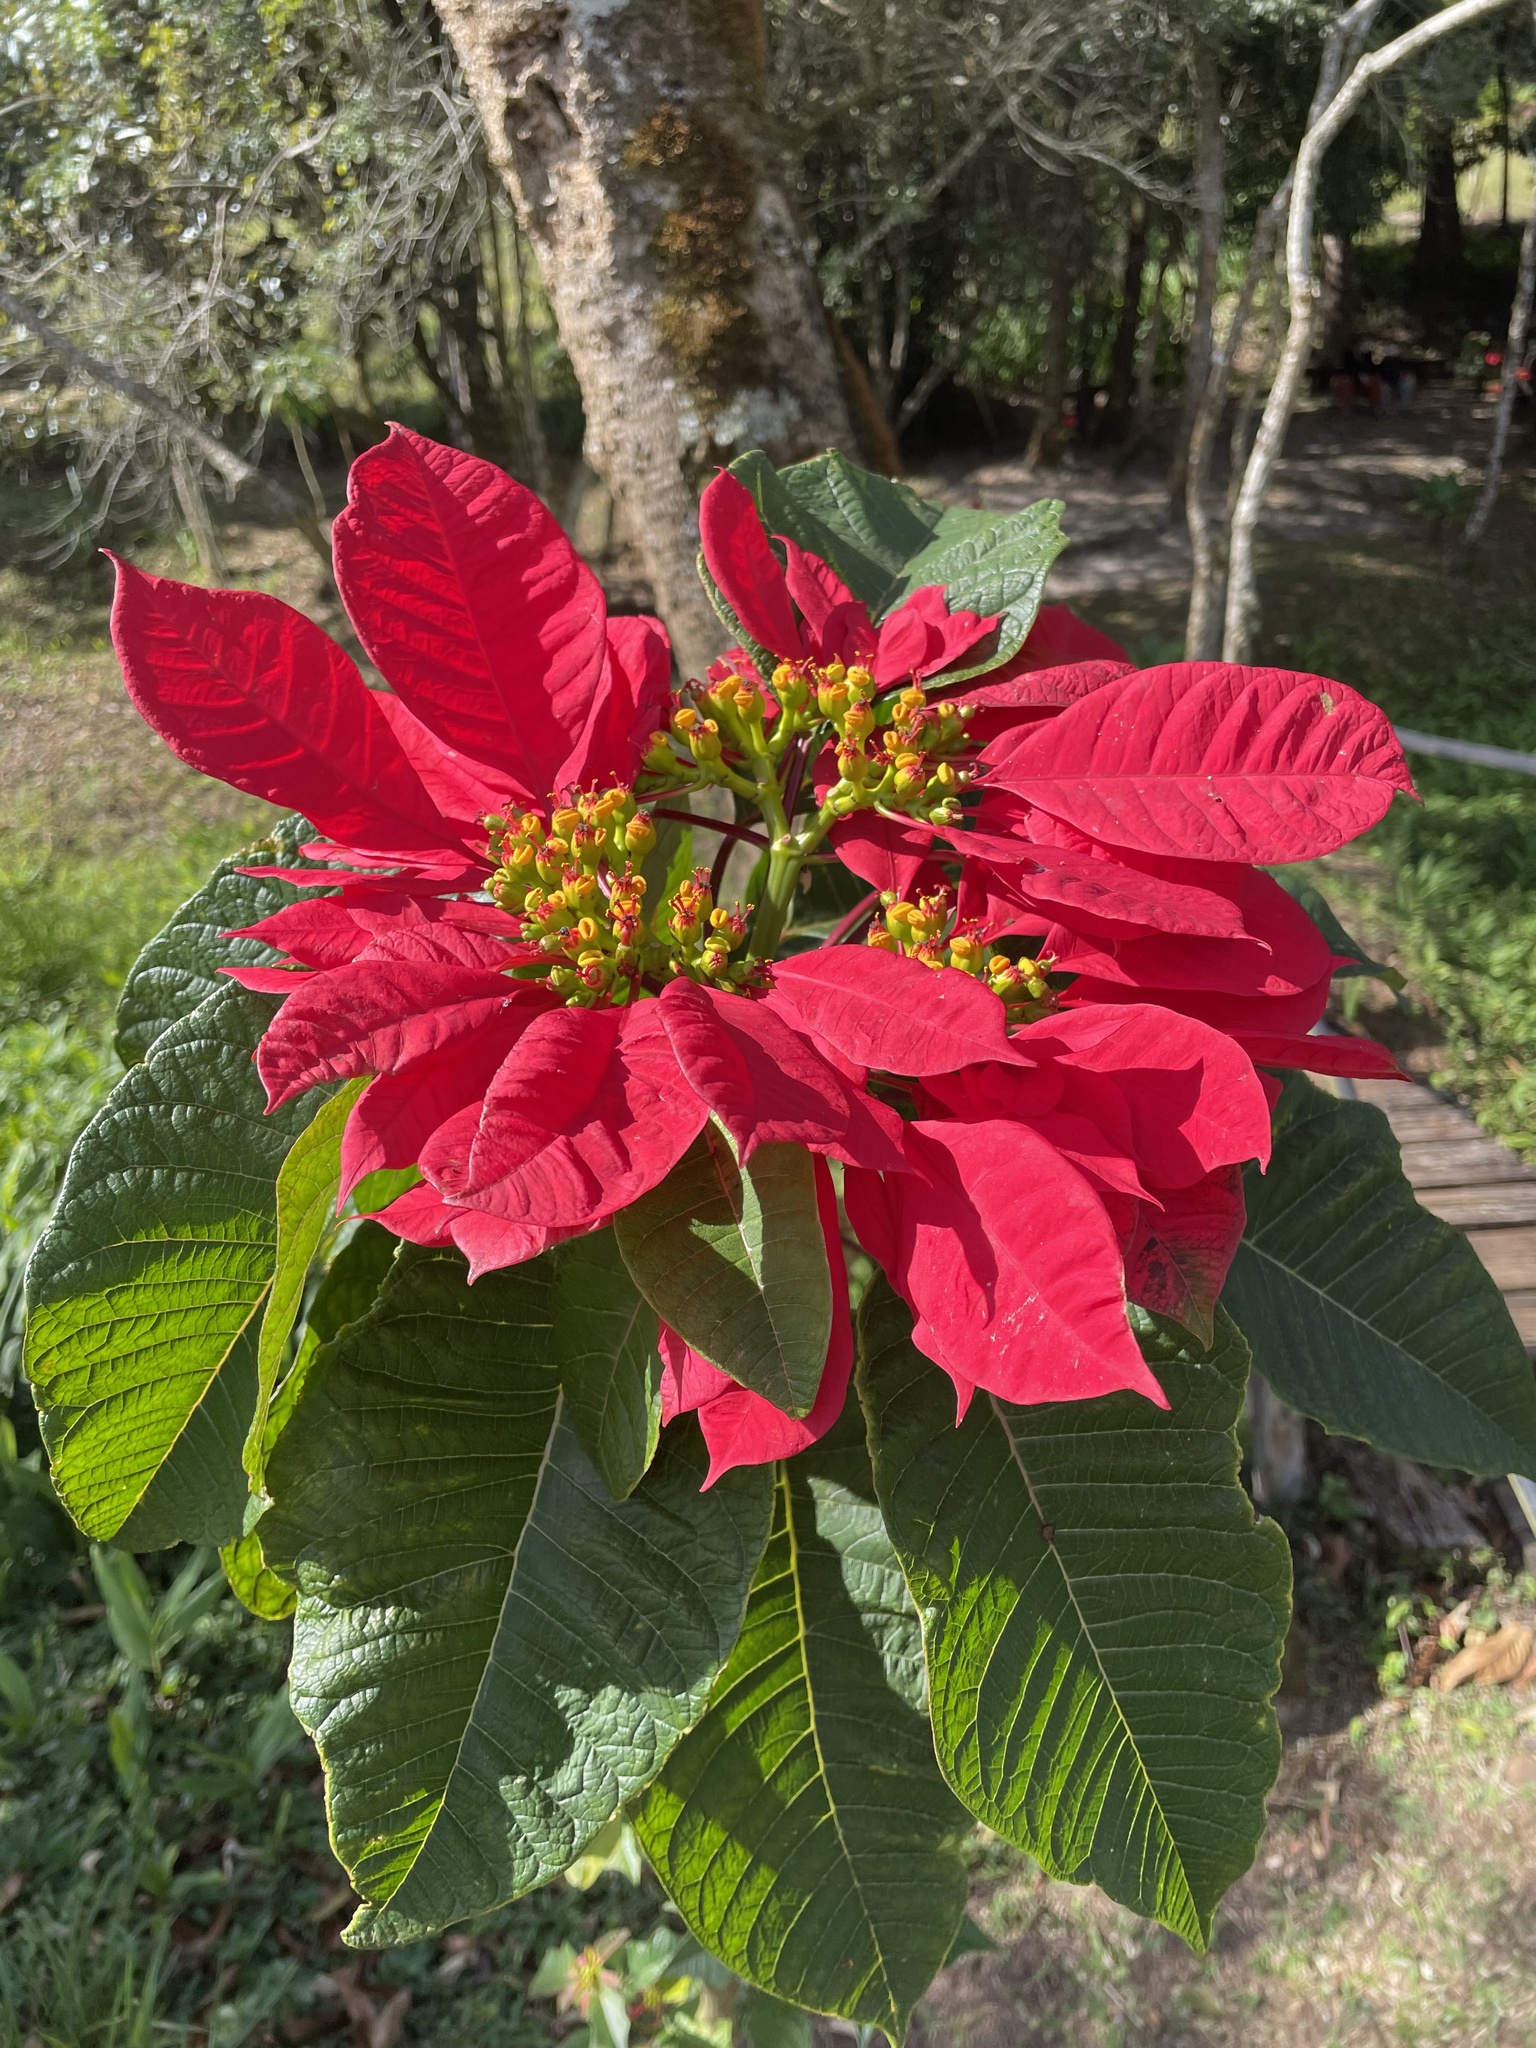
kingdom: Plantae
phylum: Tracheophyta
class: Magnoliopsida
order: Malpighiales
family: Euphorbiaceae
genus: Euphorbia
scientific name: Euphorbia pulcherrima
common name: Christmas-flower
